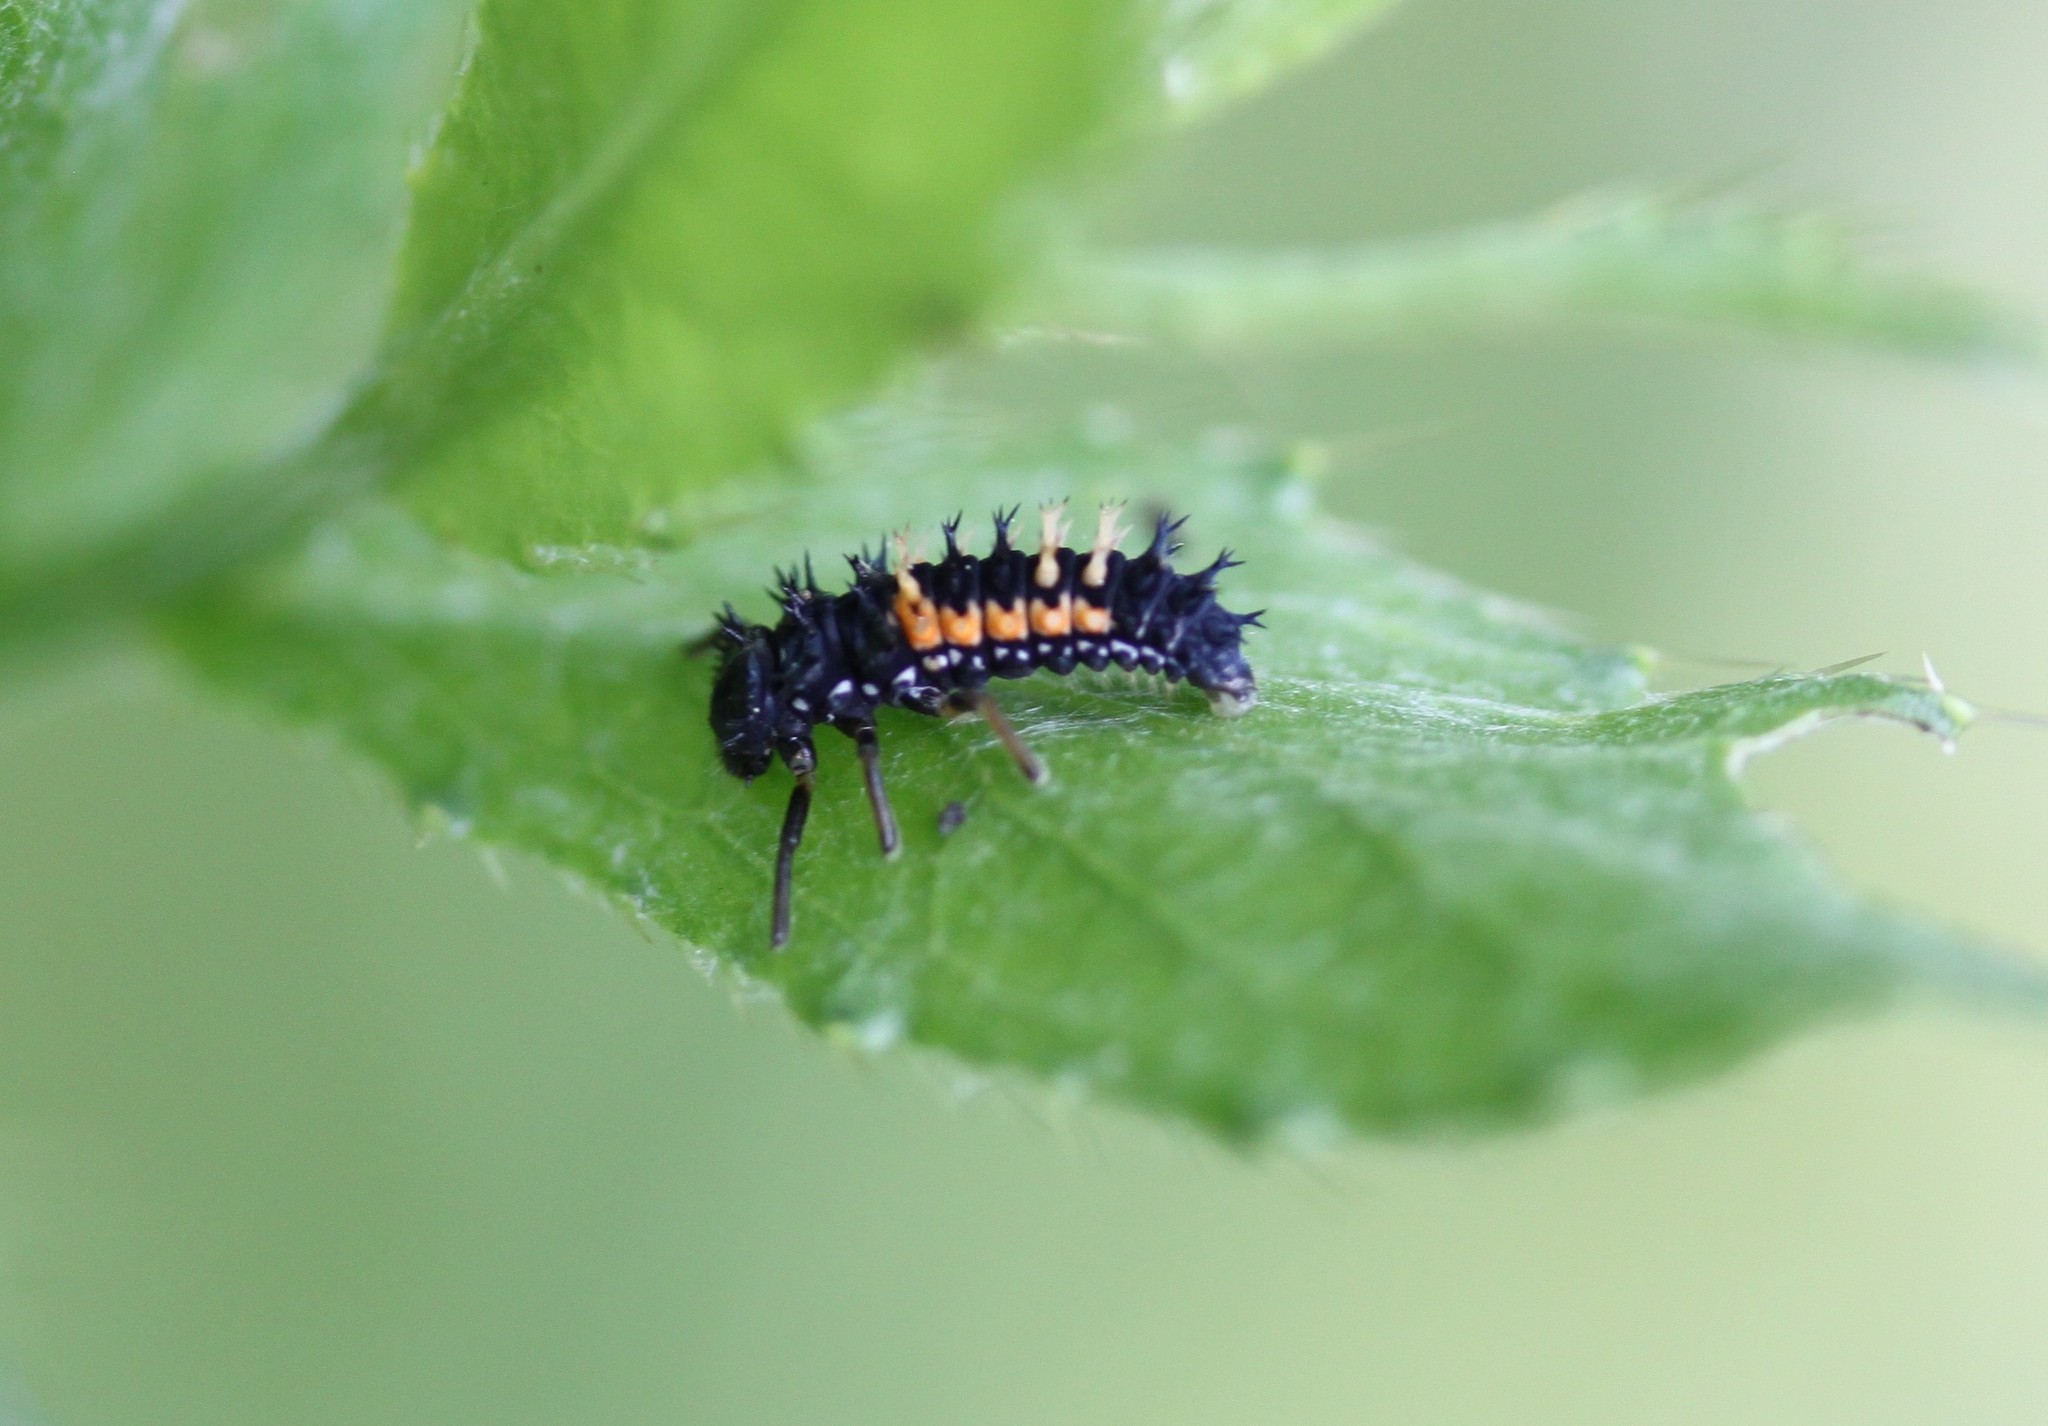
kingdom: Animalia
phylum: Arthropoda
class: Insecta
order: Coleoptera
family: Coccinellidae
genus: Harmonia
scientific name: Harmonia axyridis
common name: Harlequin ladybird
